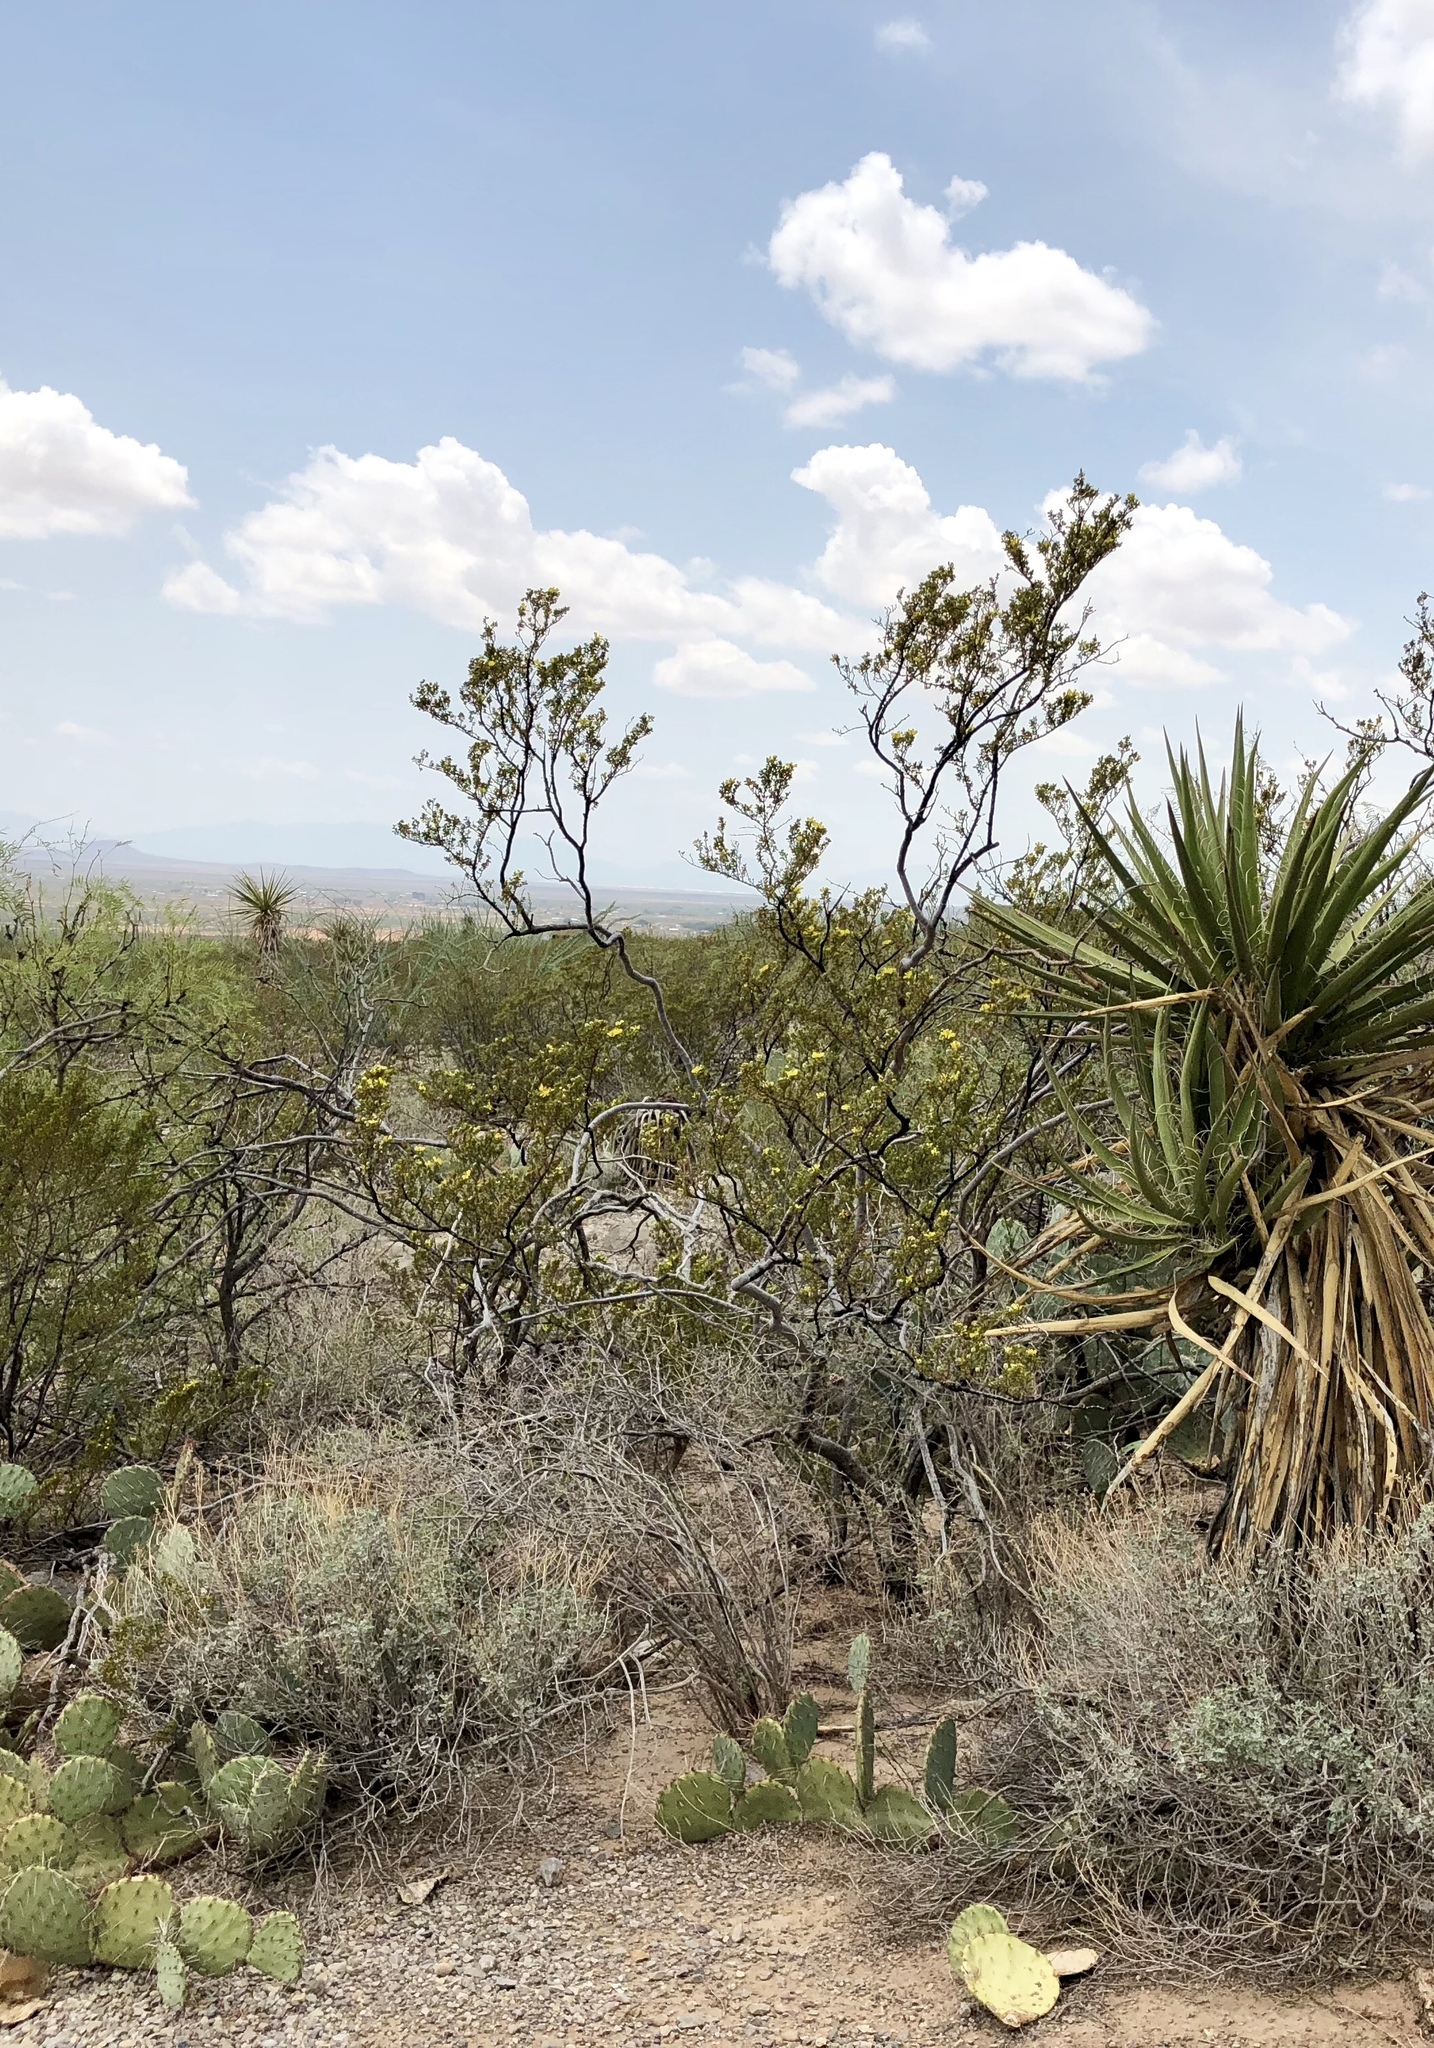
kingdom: Plantae
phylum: Tracheophyta
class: Magnoliopsida
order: Zygophyllales
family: Zygophyllaceae
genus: Larrea
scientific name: Larrea tridentata
